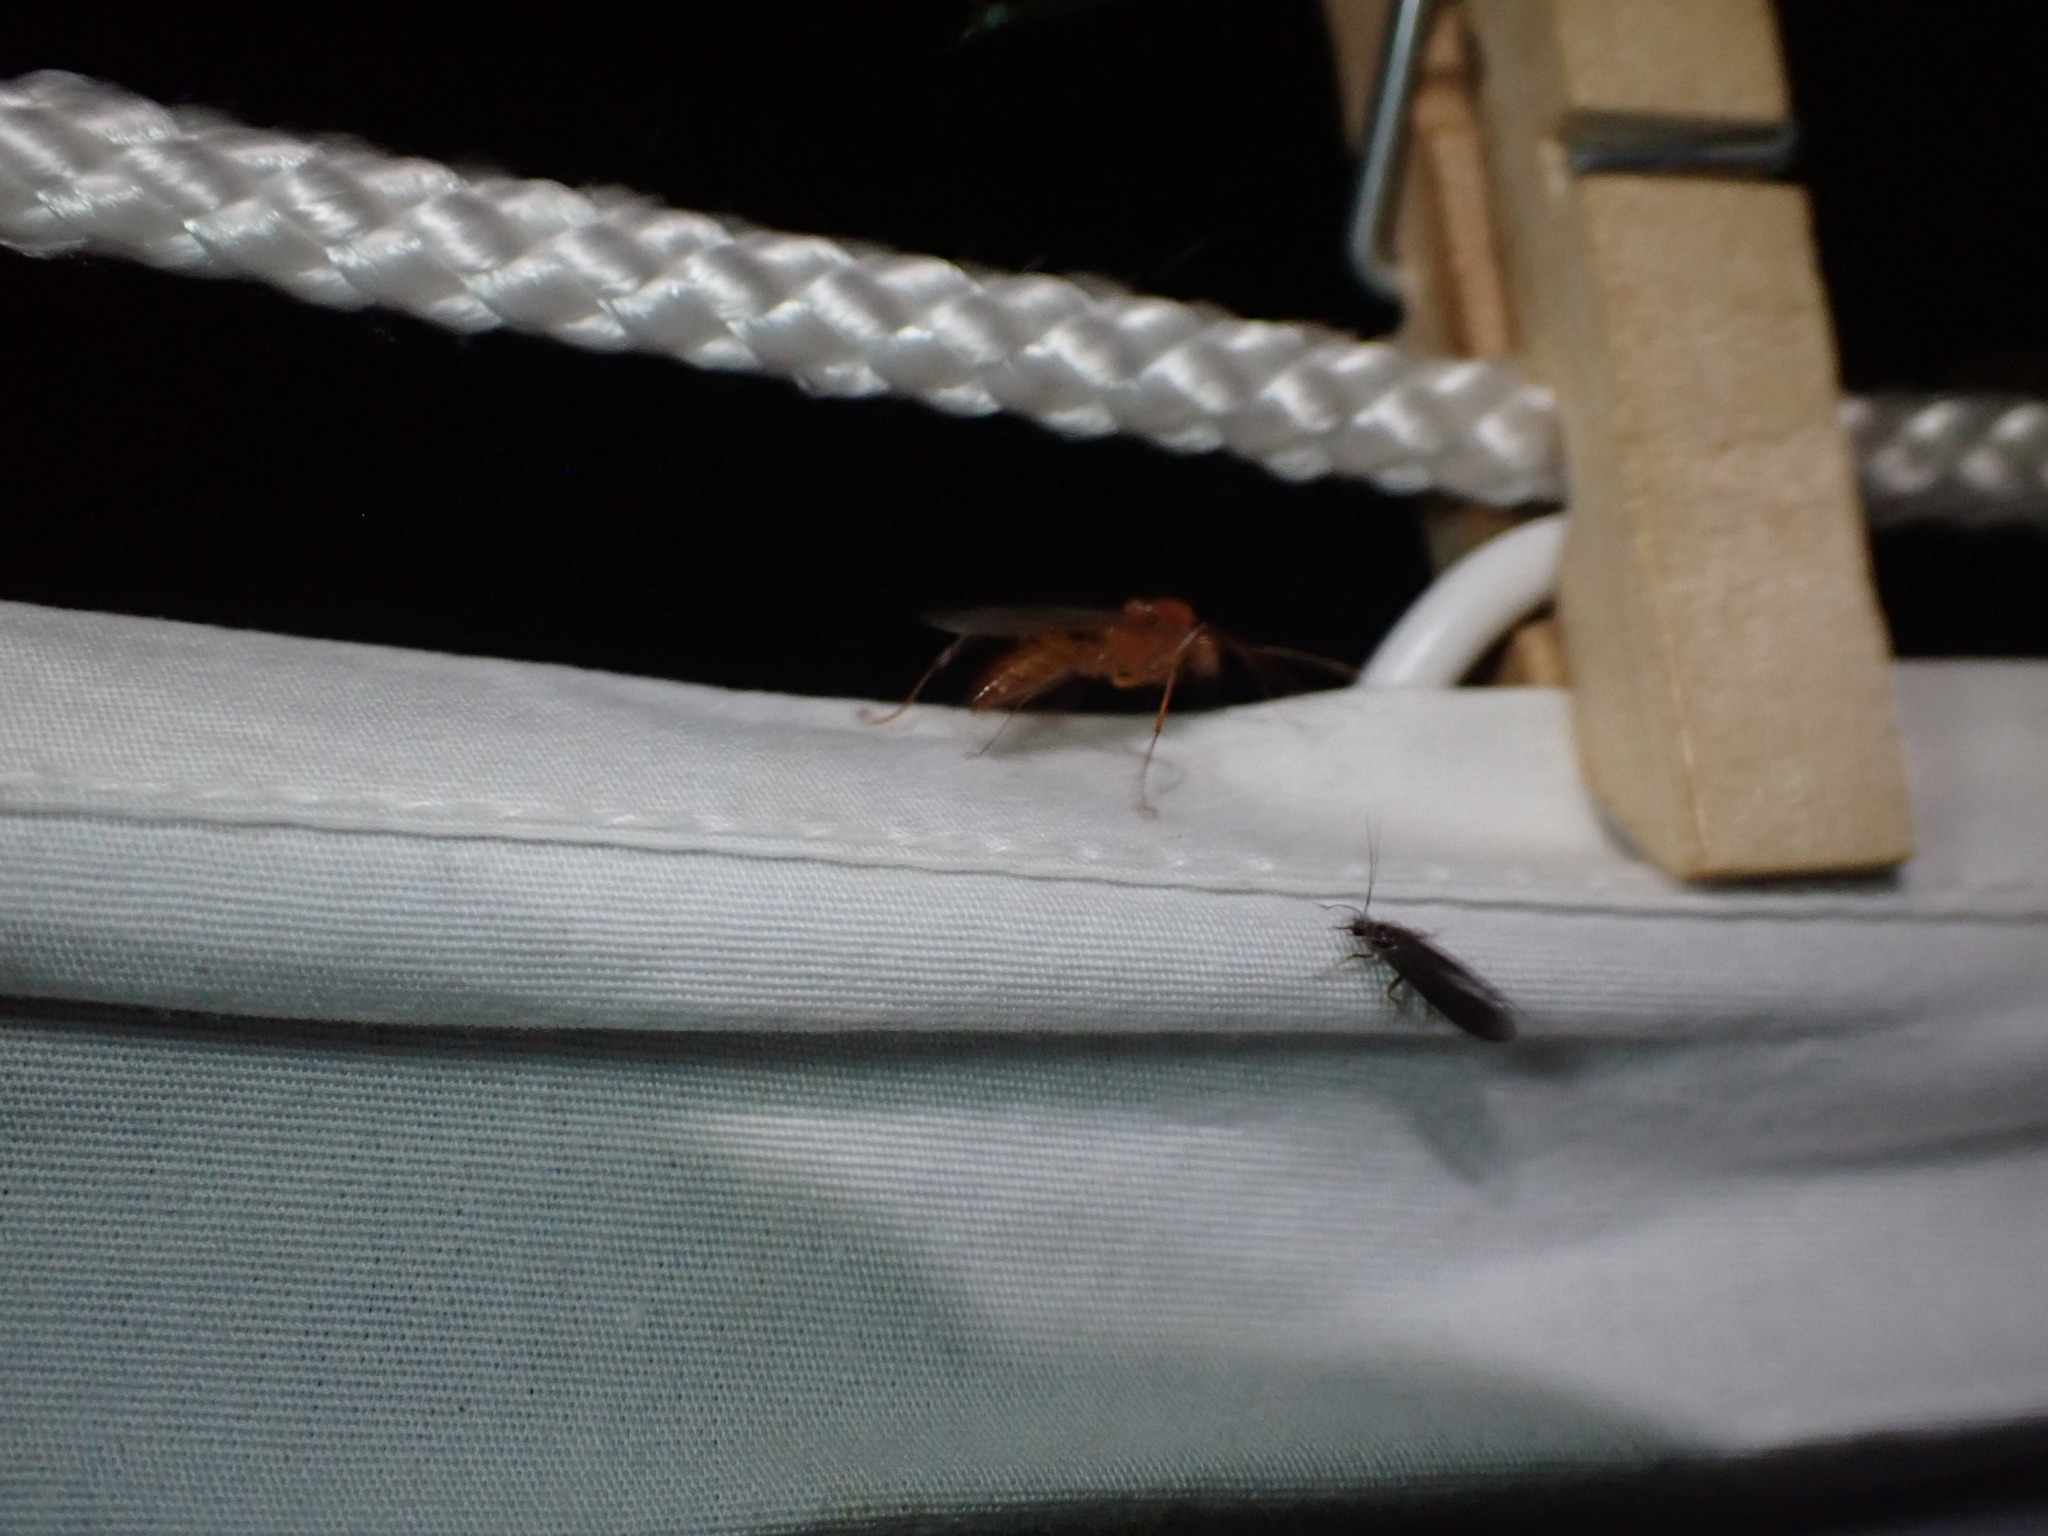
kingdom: Animalia
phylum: Arthropoda
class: Insecta
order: Hymenoptera
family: Formicidae
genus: Camponotus
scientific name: Camponotus castaneus
